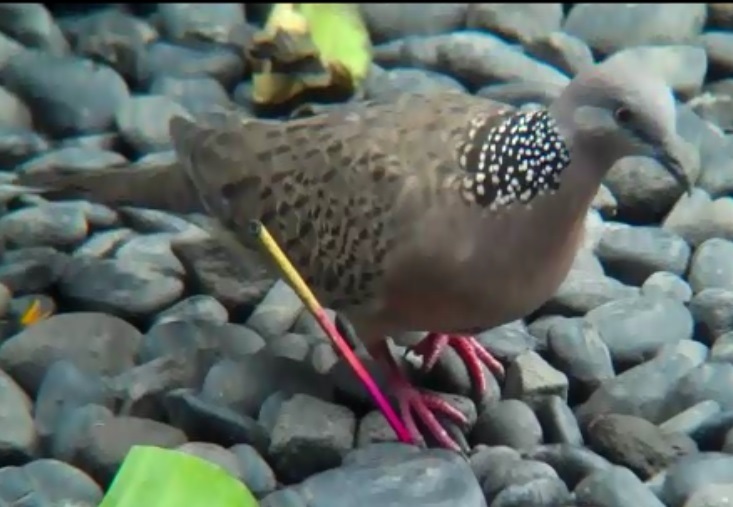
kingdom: Animalia
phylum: Chordata
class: Aves
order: Columbiformes
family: Columbidae
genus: Spilopelia
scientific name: Spilopelia chinensis
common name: Spotted dove
